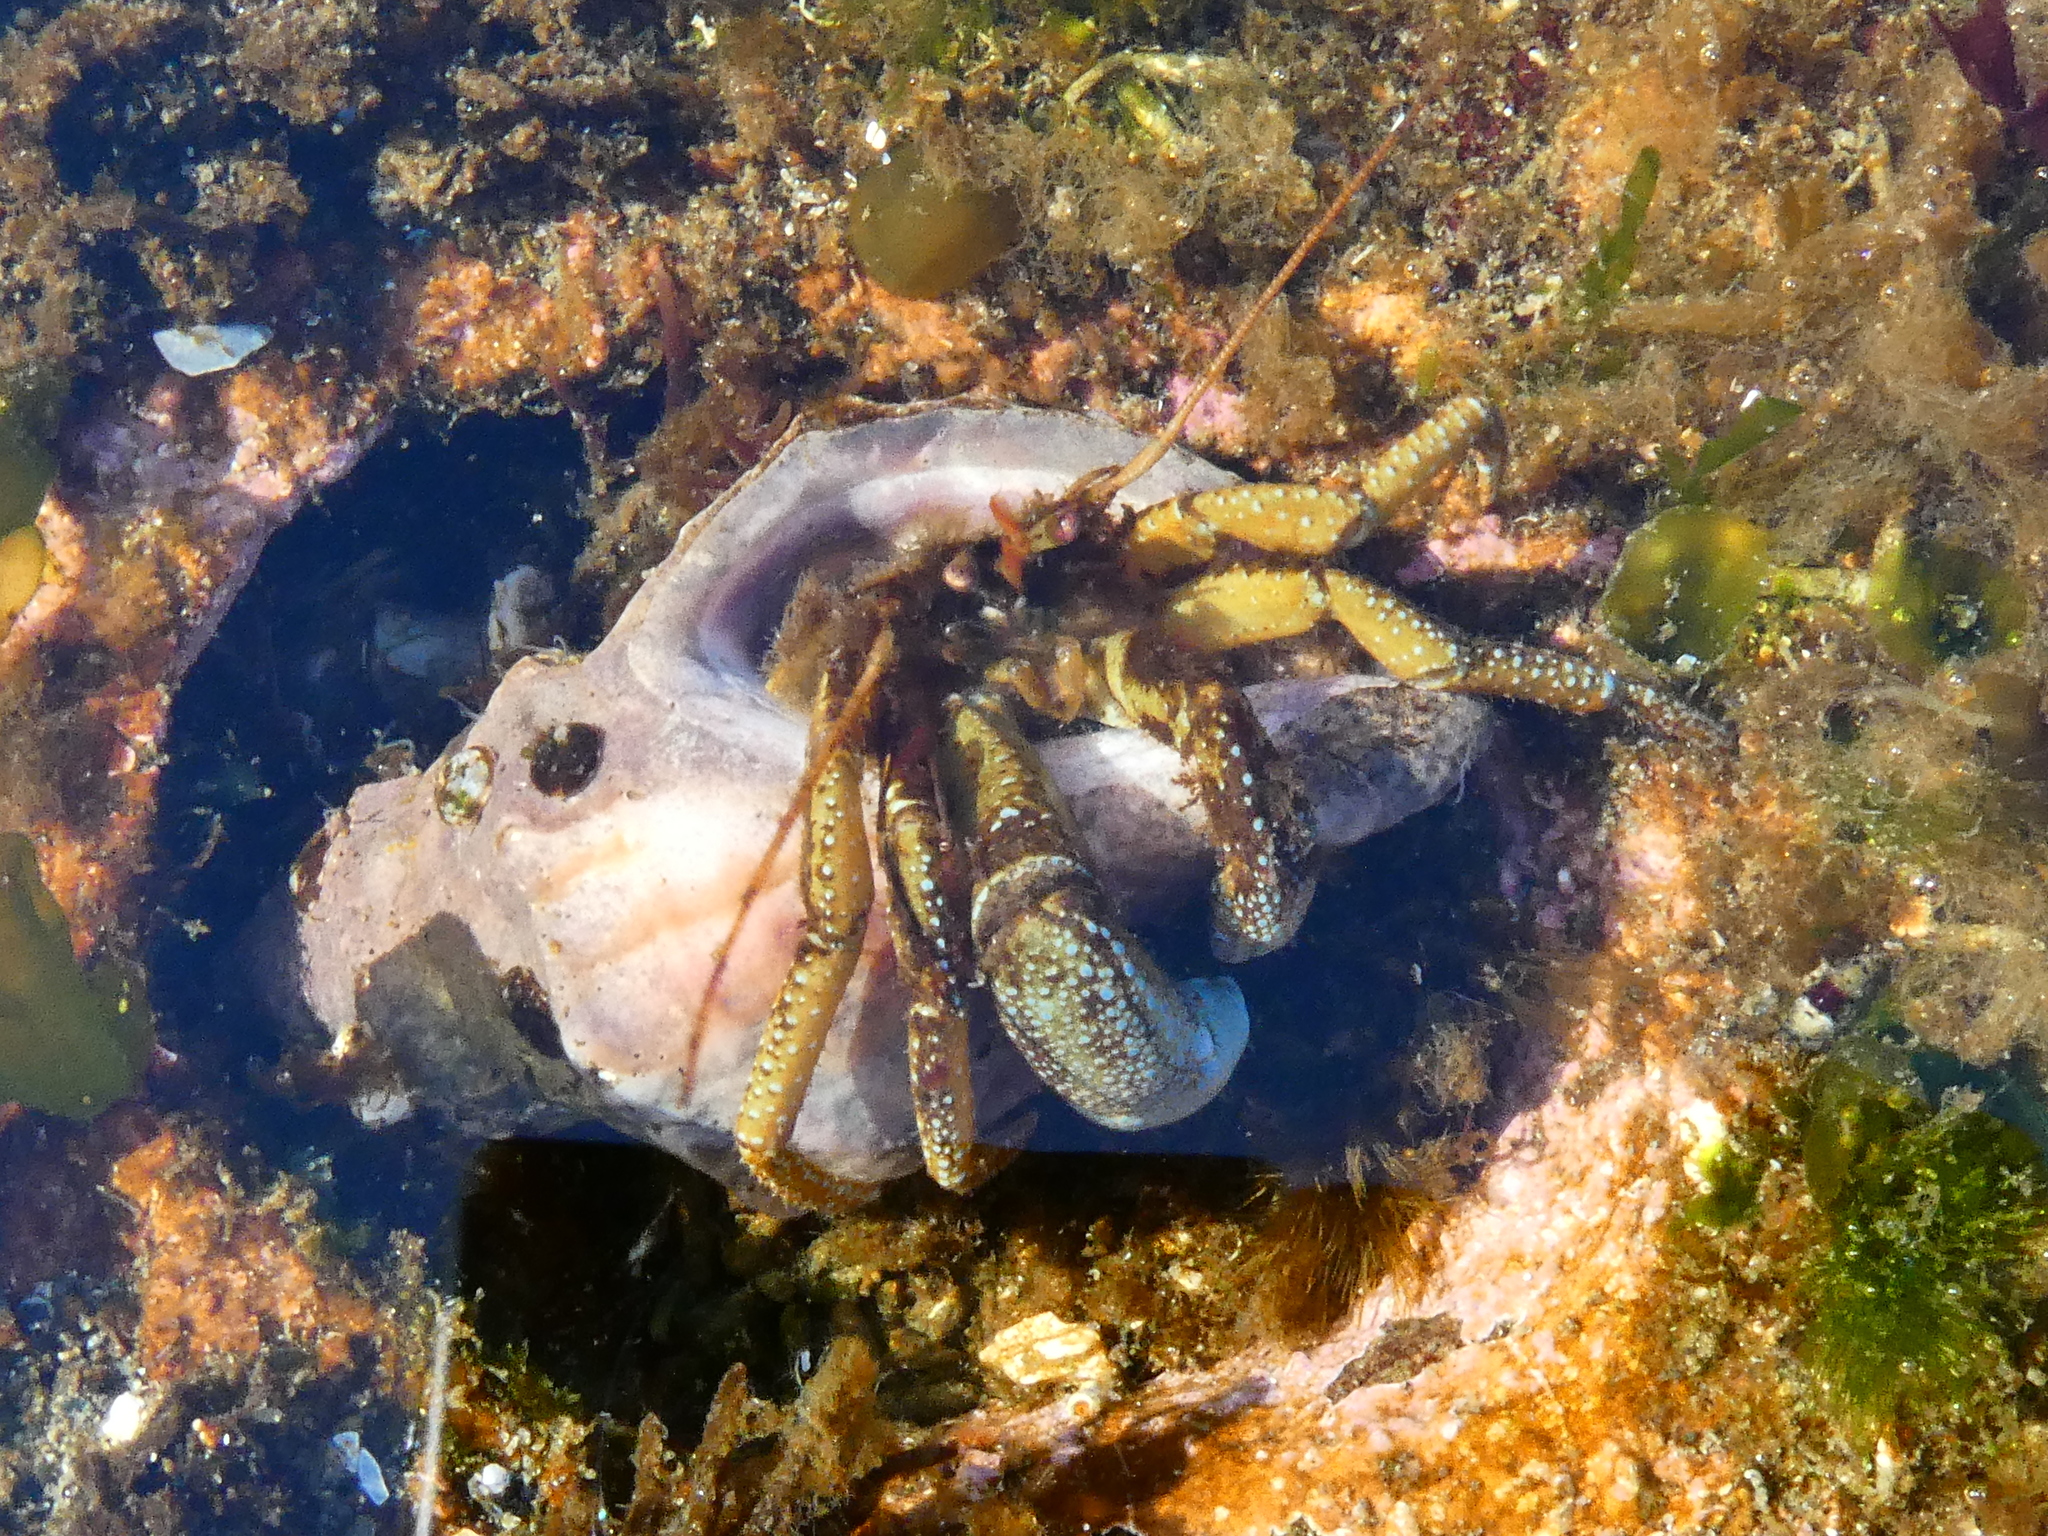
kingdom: Animalia
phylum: Arthropoda
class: Malacostraca
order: Decapoda
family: Paguridae
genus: Pagurus
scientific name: Pagurus granosimanus
